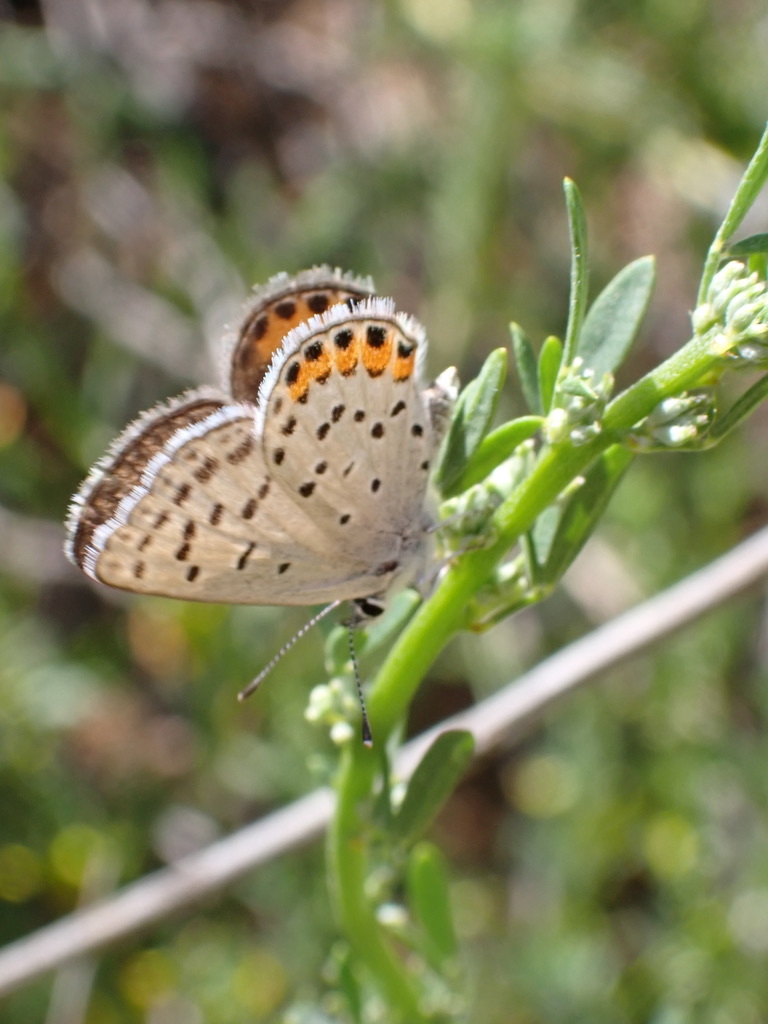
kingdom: Animalia
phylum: Arthropoda
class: Insecta
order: Lepidoptera
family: Lycaenidae
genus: Icaricia
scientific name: Icaricia acmon
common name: Acmon blue
